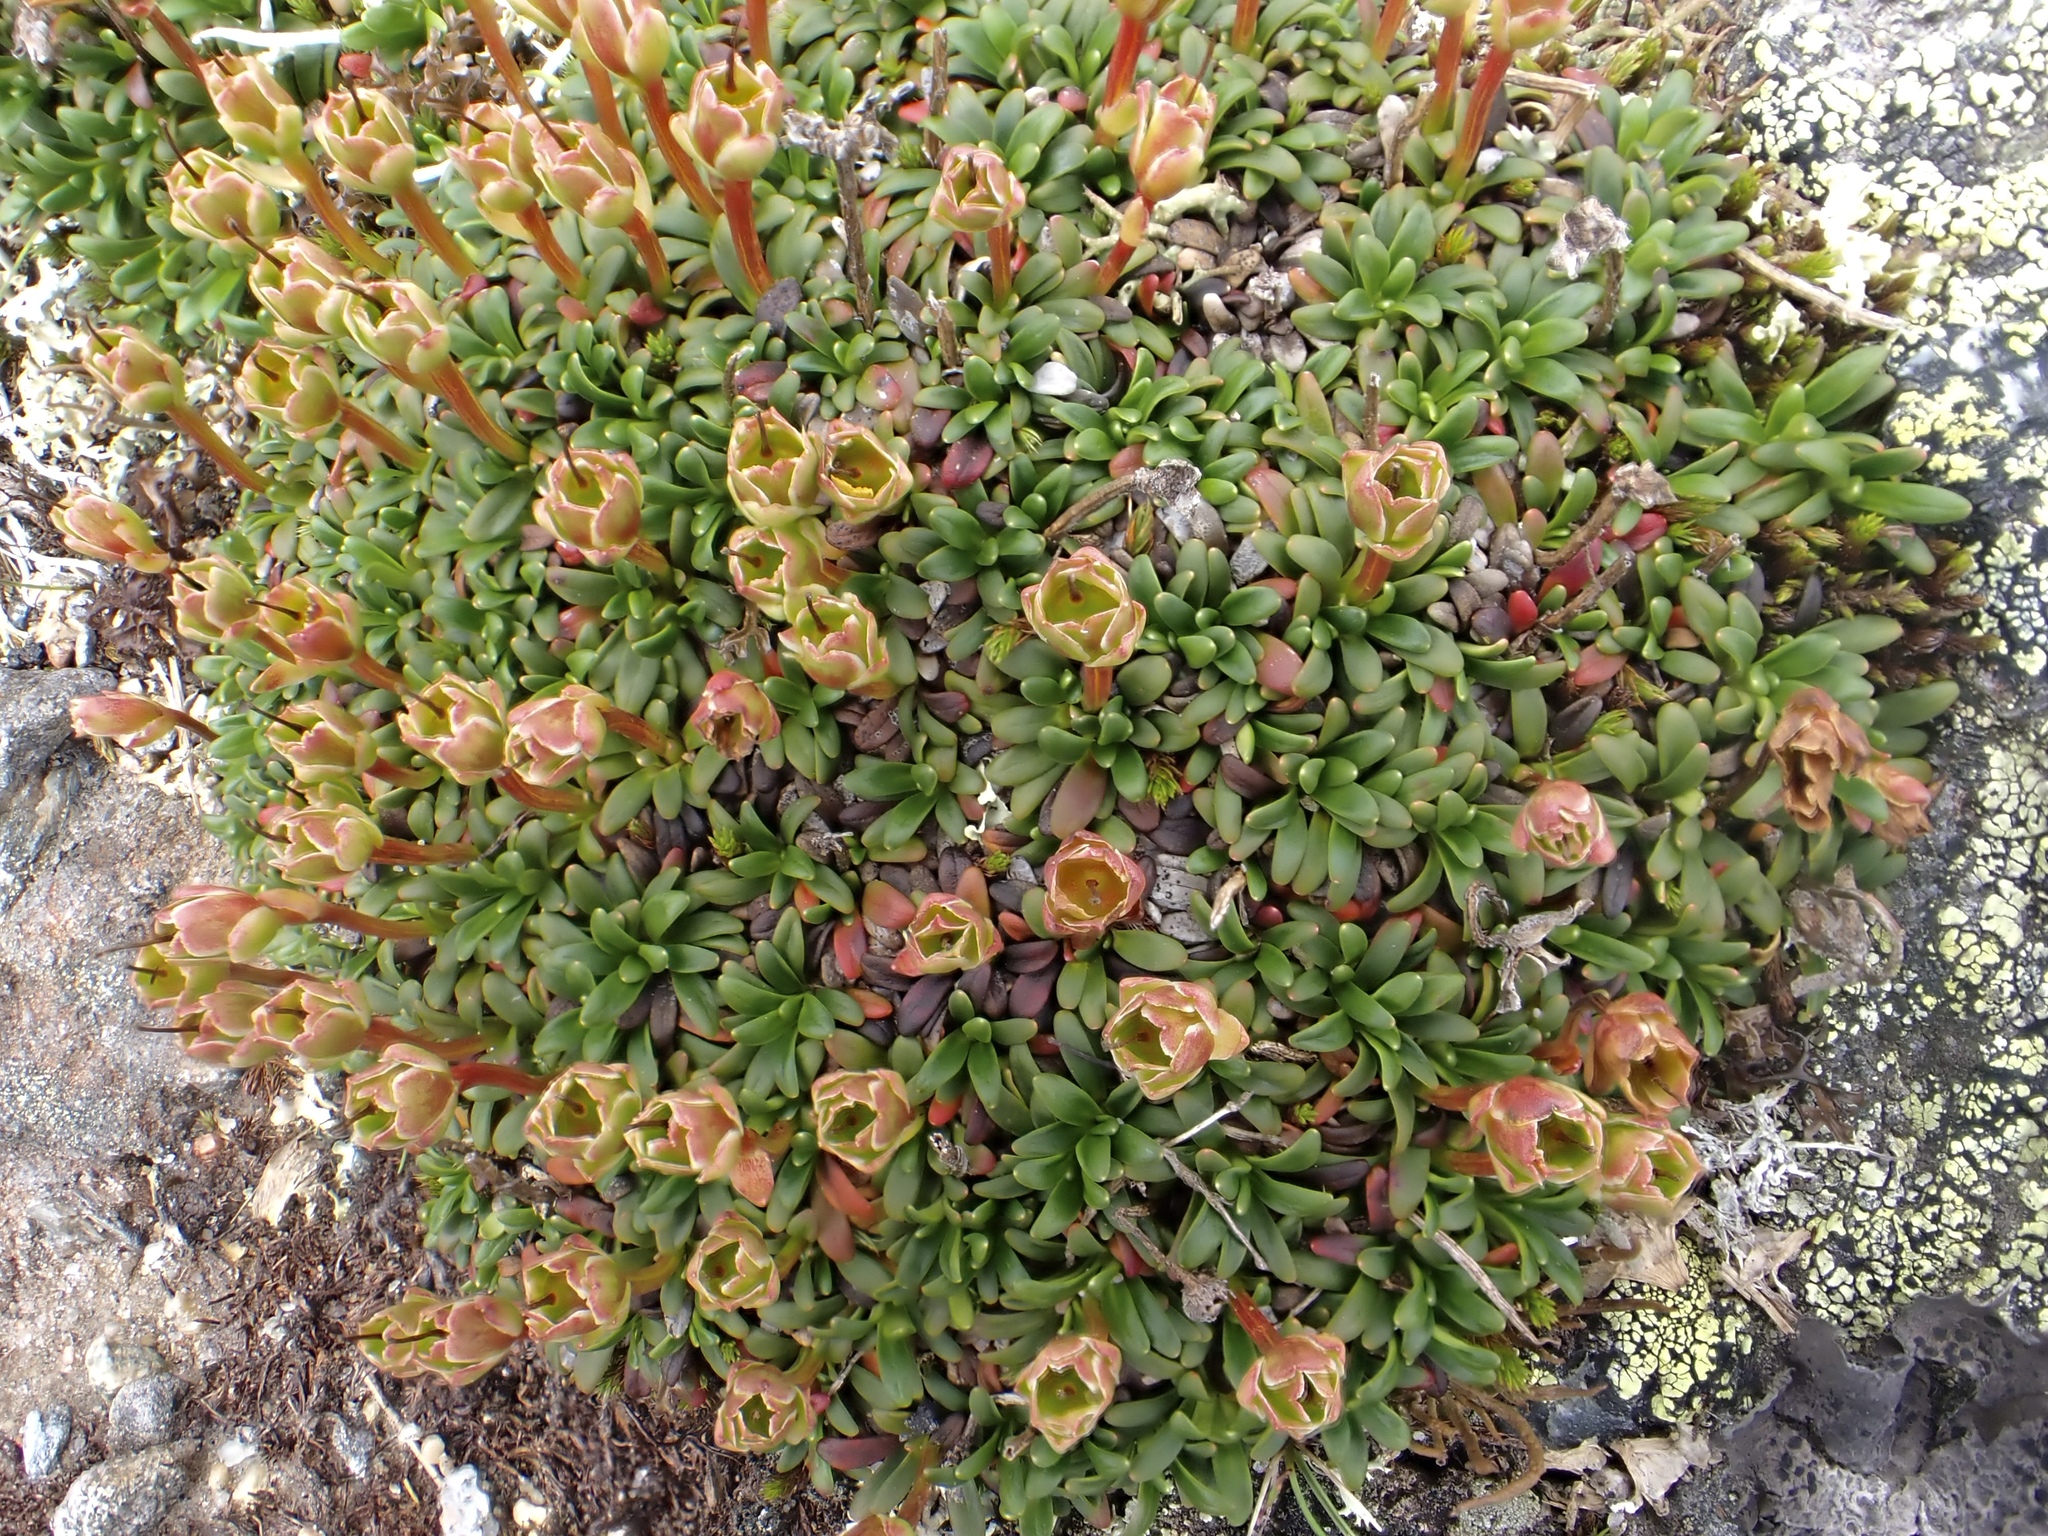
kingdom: Plantae
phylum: Tracheophyta
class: Magnoliopsida
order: Ericales
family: Diapensiaceae
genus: Diapensia
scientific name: Diapensia lapponica
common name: Diapensia
